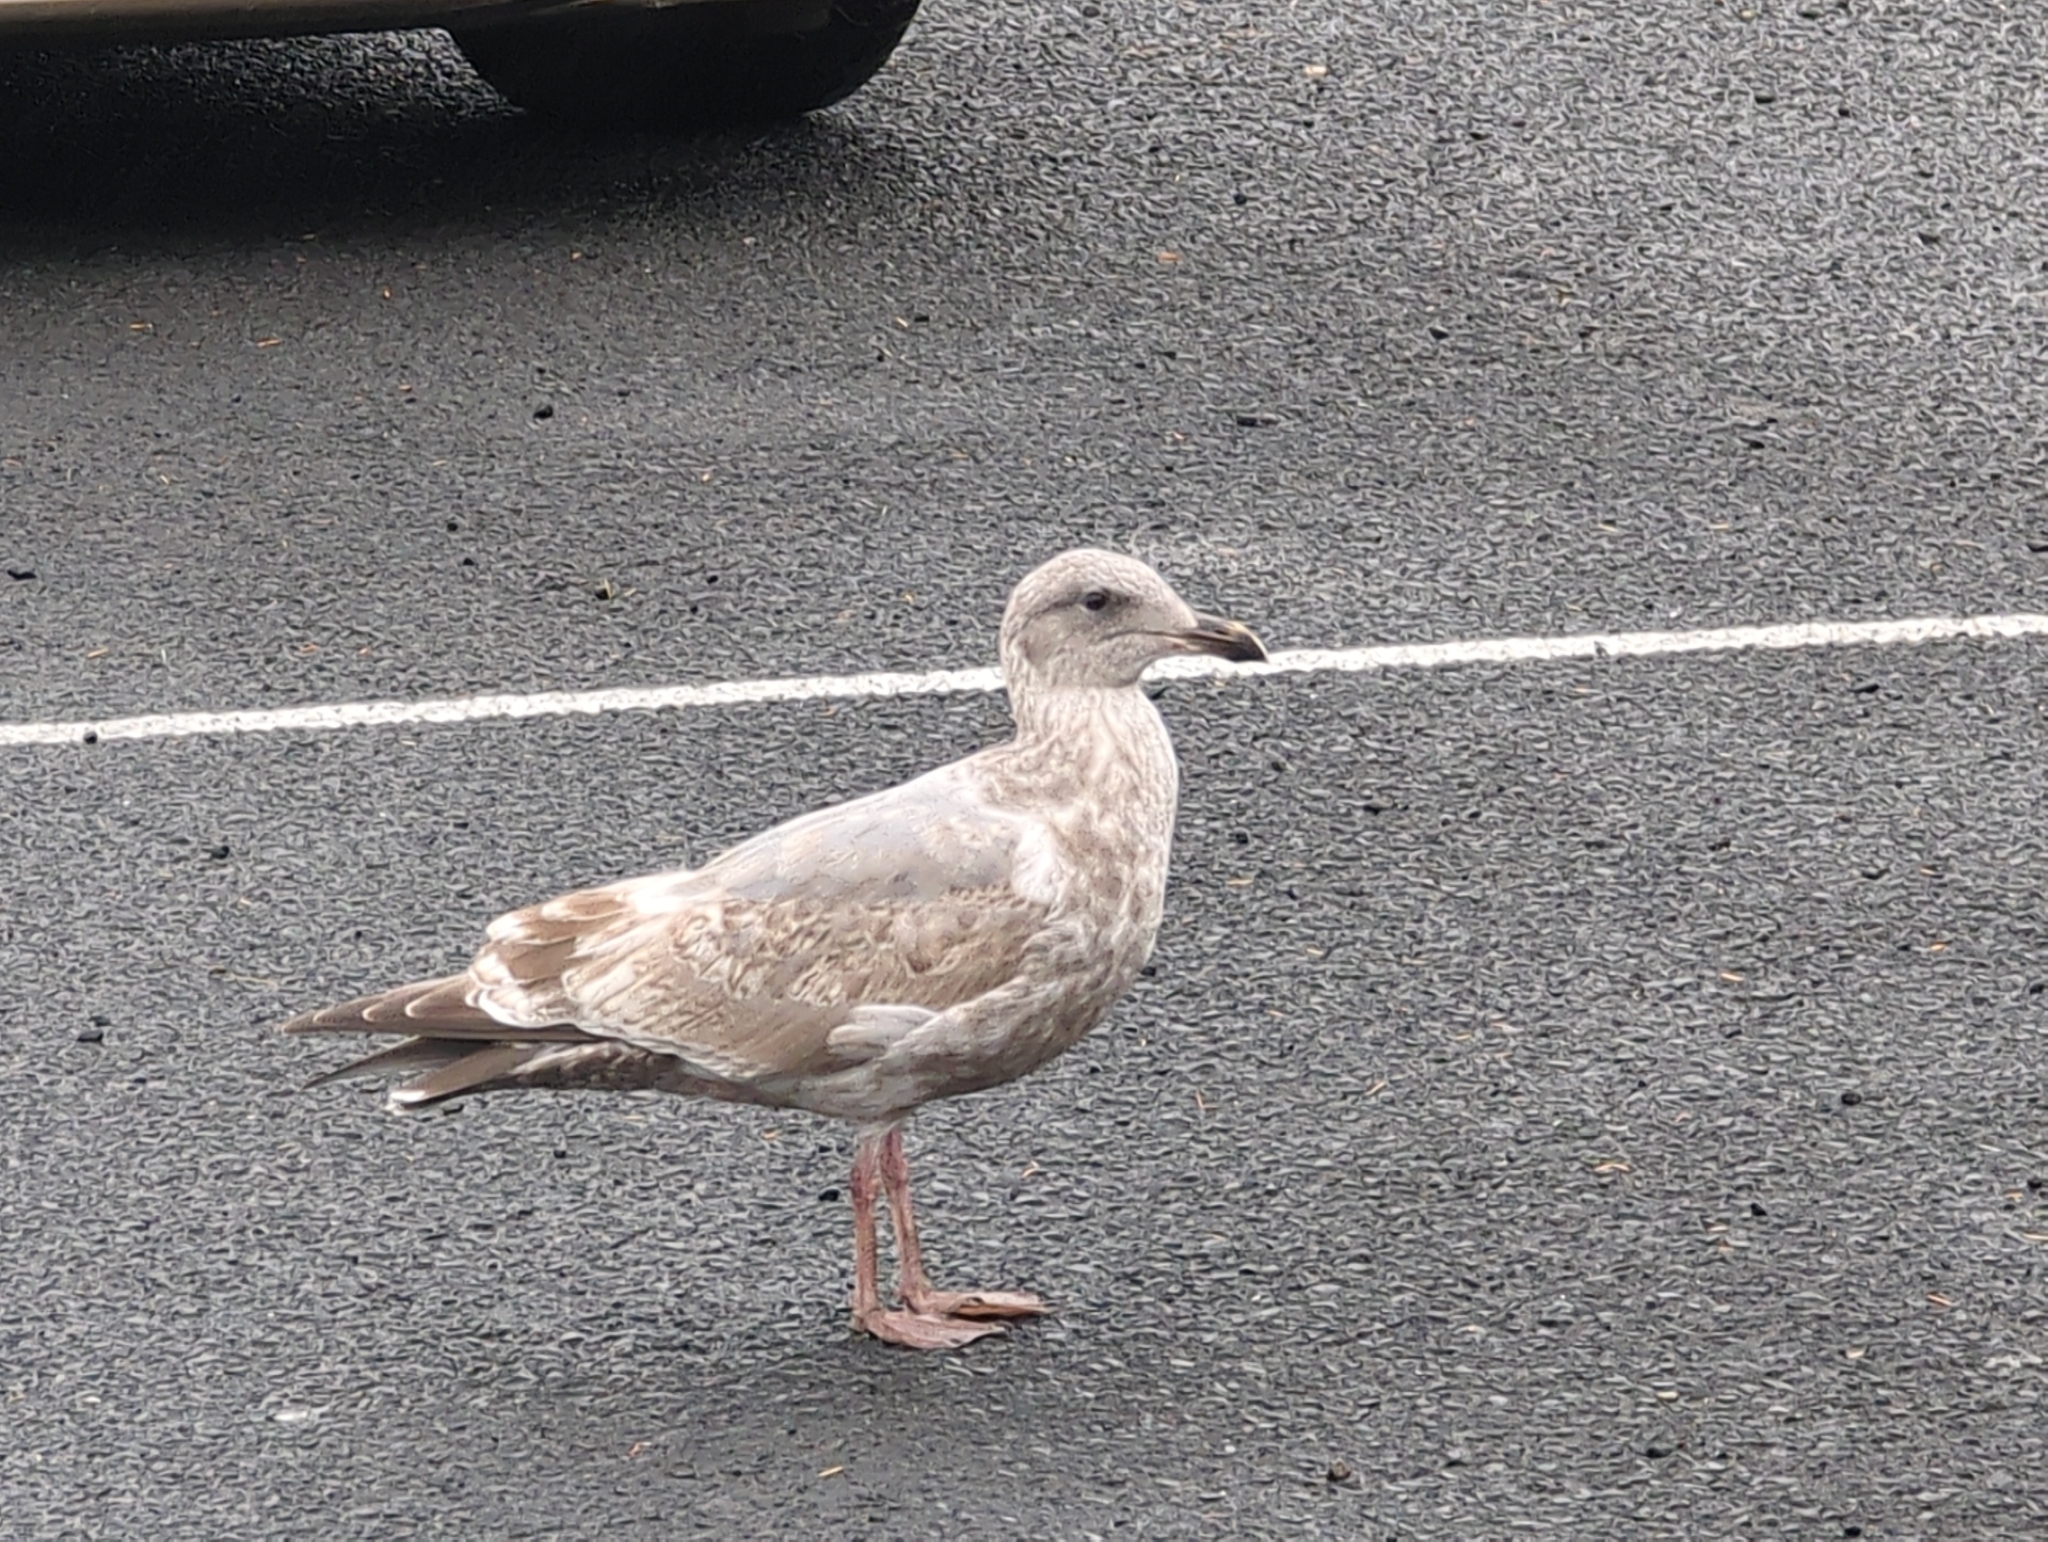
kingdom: Animalia
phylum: Chordata
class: Aves
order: Charadriiformes
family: Laridae
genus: Larus
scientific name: Larus
